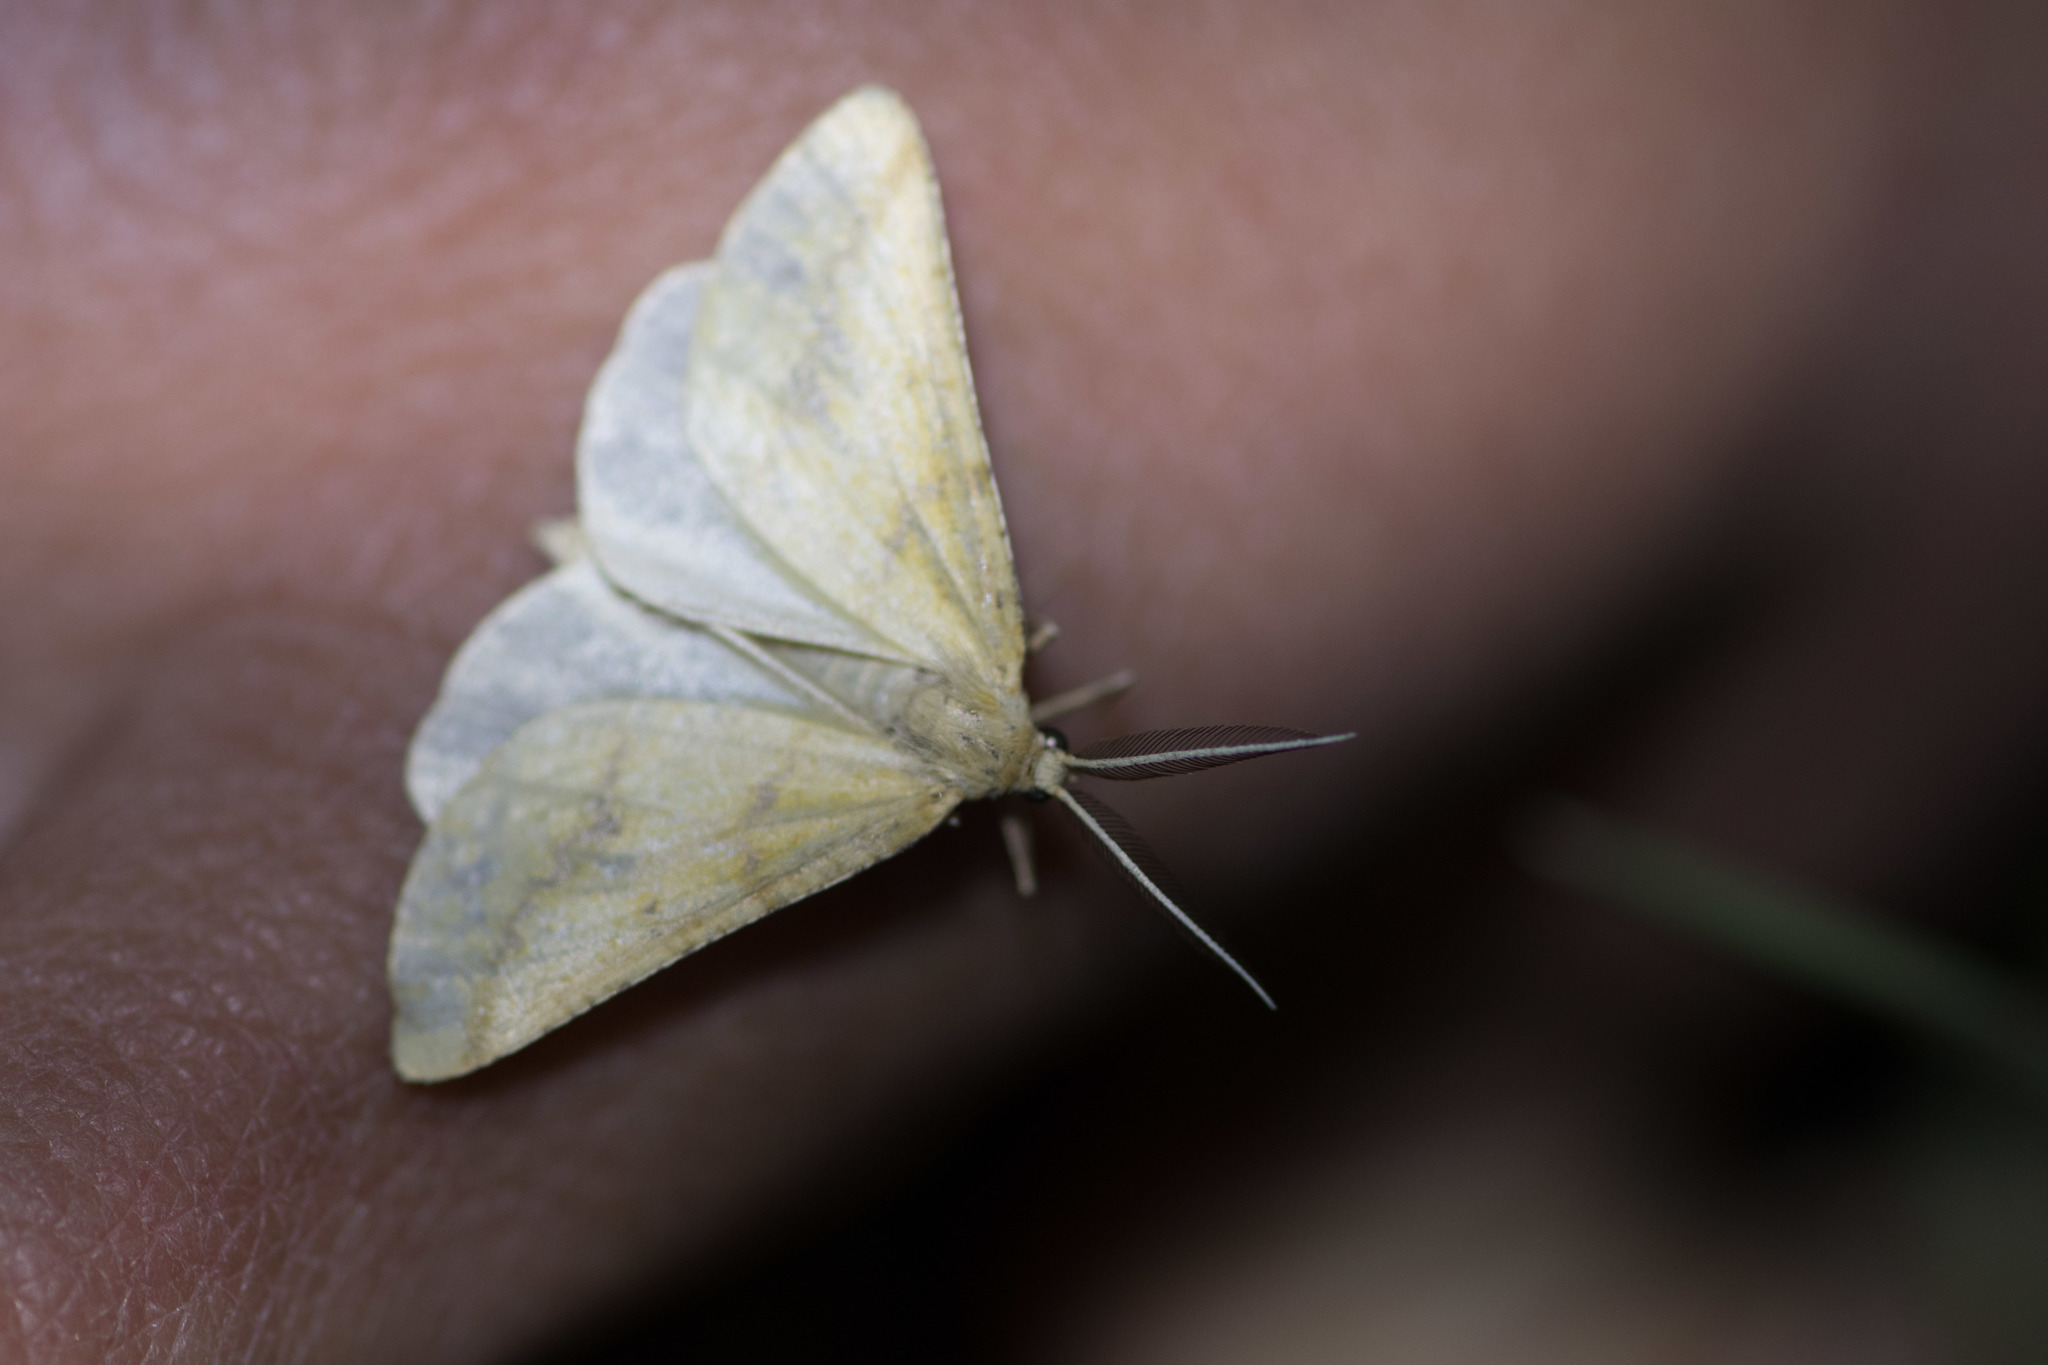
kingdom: Animalia
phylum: Arthropoda
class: Insecta
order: Lepidoptera
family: Geometridae
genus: Aspitates
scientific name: Aspitates ochrearia
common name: Yellow belle
